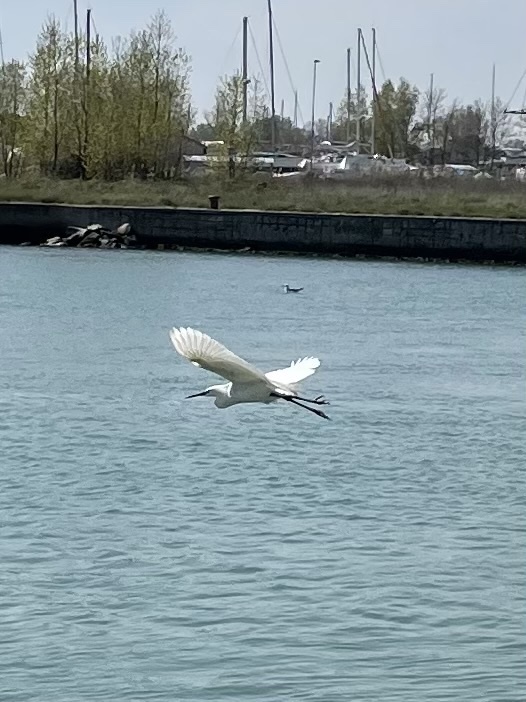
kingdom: Animalia
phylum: Chordata
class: Aves
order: Pelecaniformes
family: Ardeidae
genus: Egretta
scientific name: Egretta garzetta
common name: Little egret
